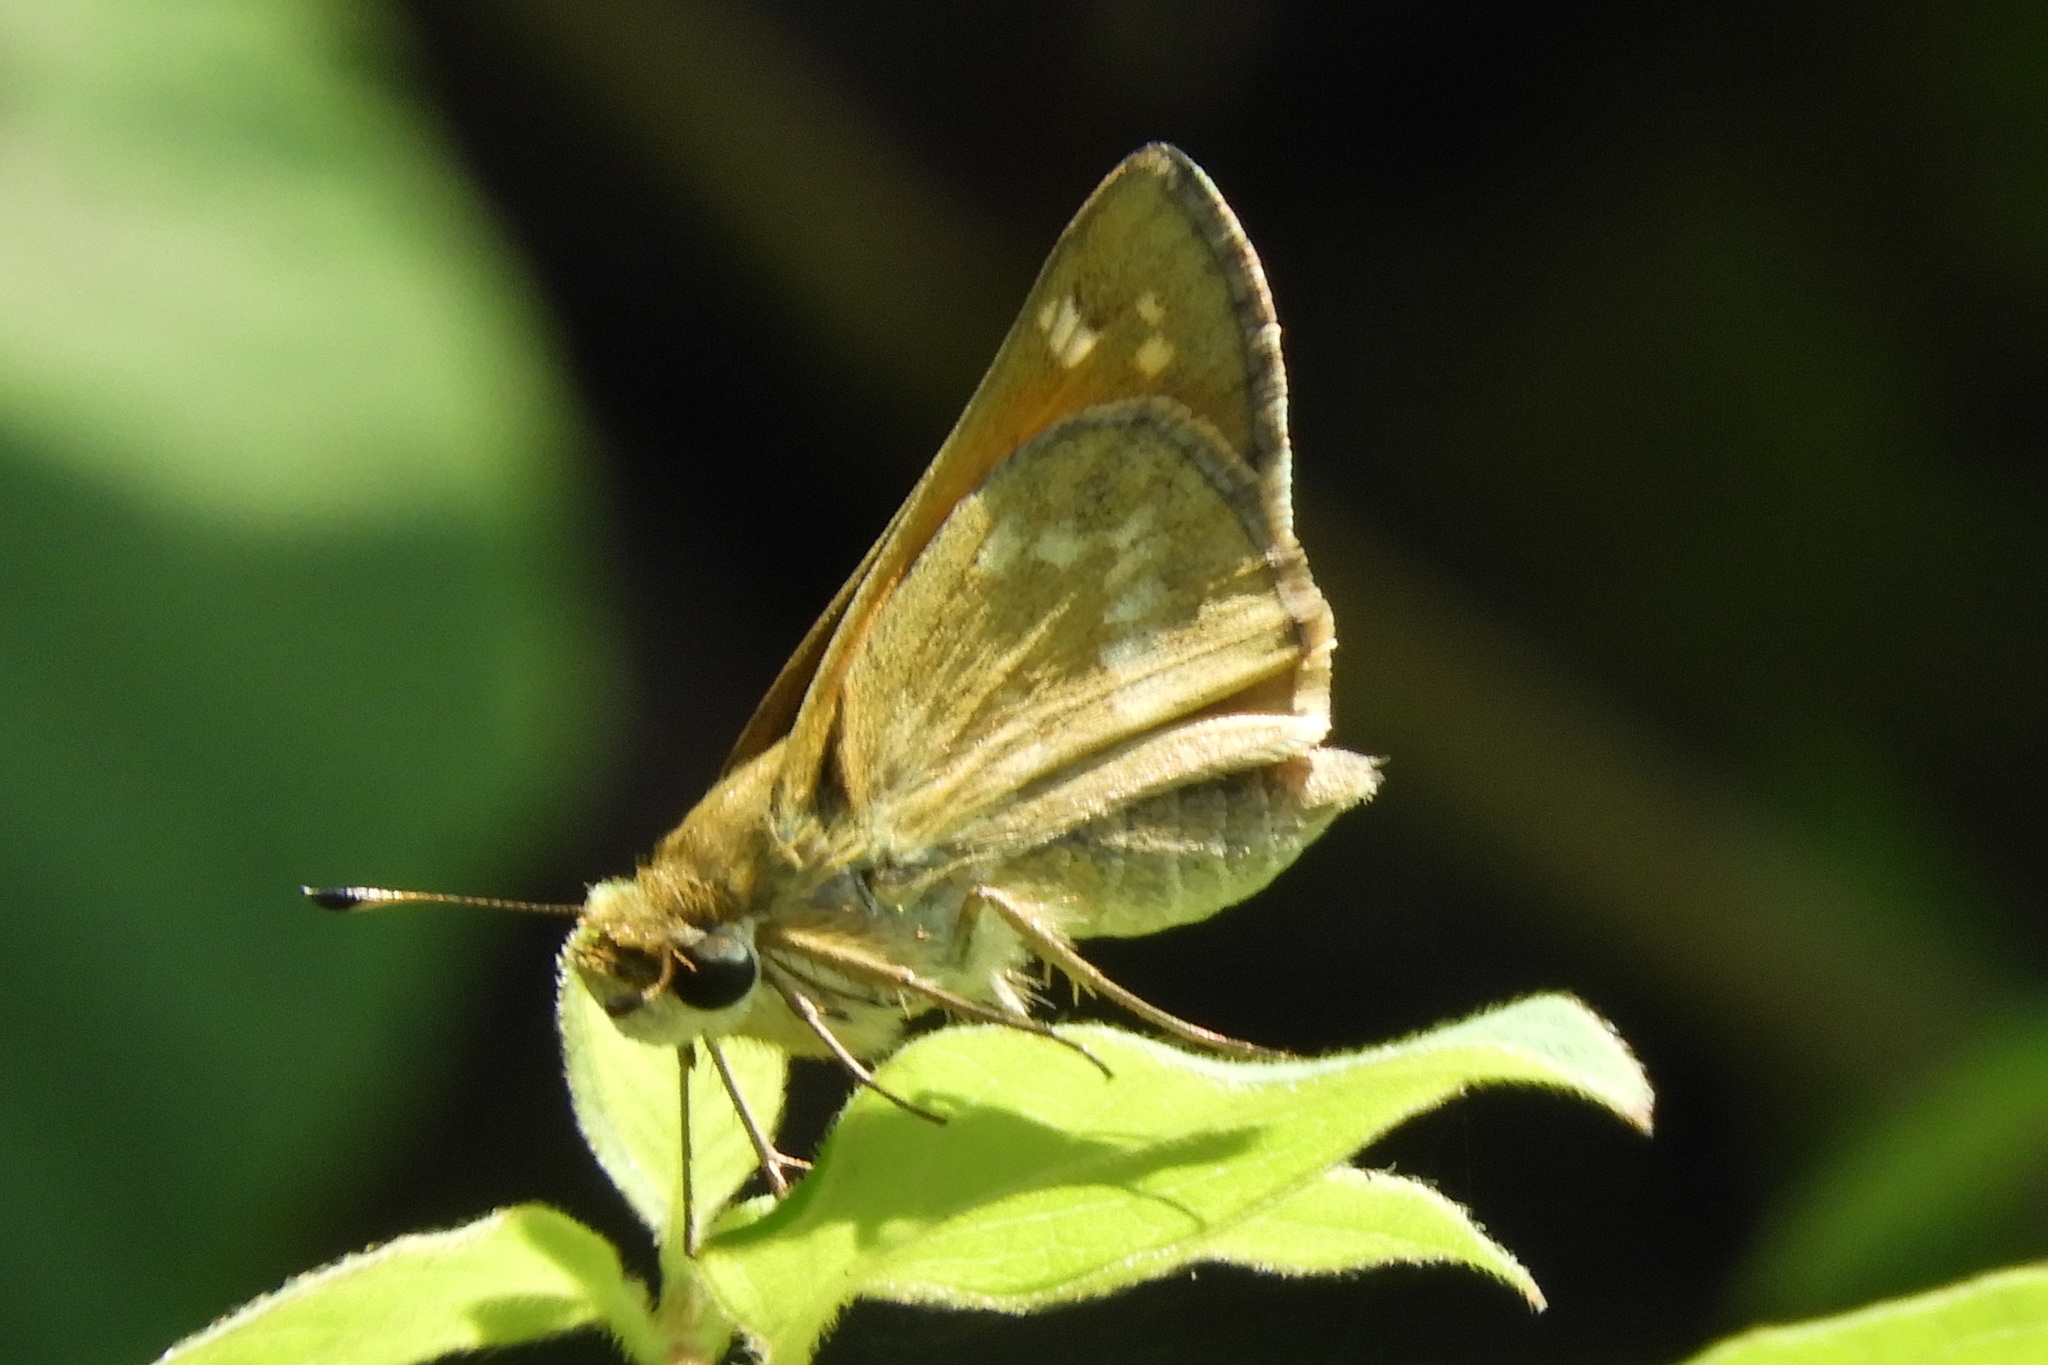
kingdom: Animalia
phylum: Arthropoda
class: Insecta
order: Lepidoptera
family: Hesperiidae
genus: Atalopedes
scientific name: Atalopedes
